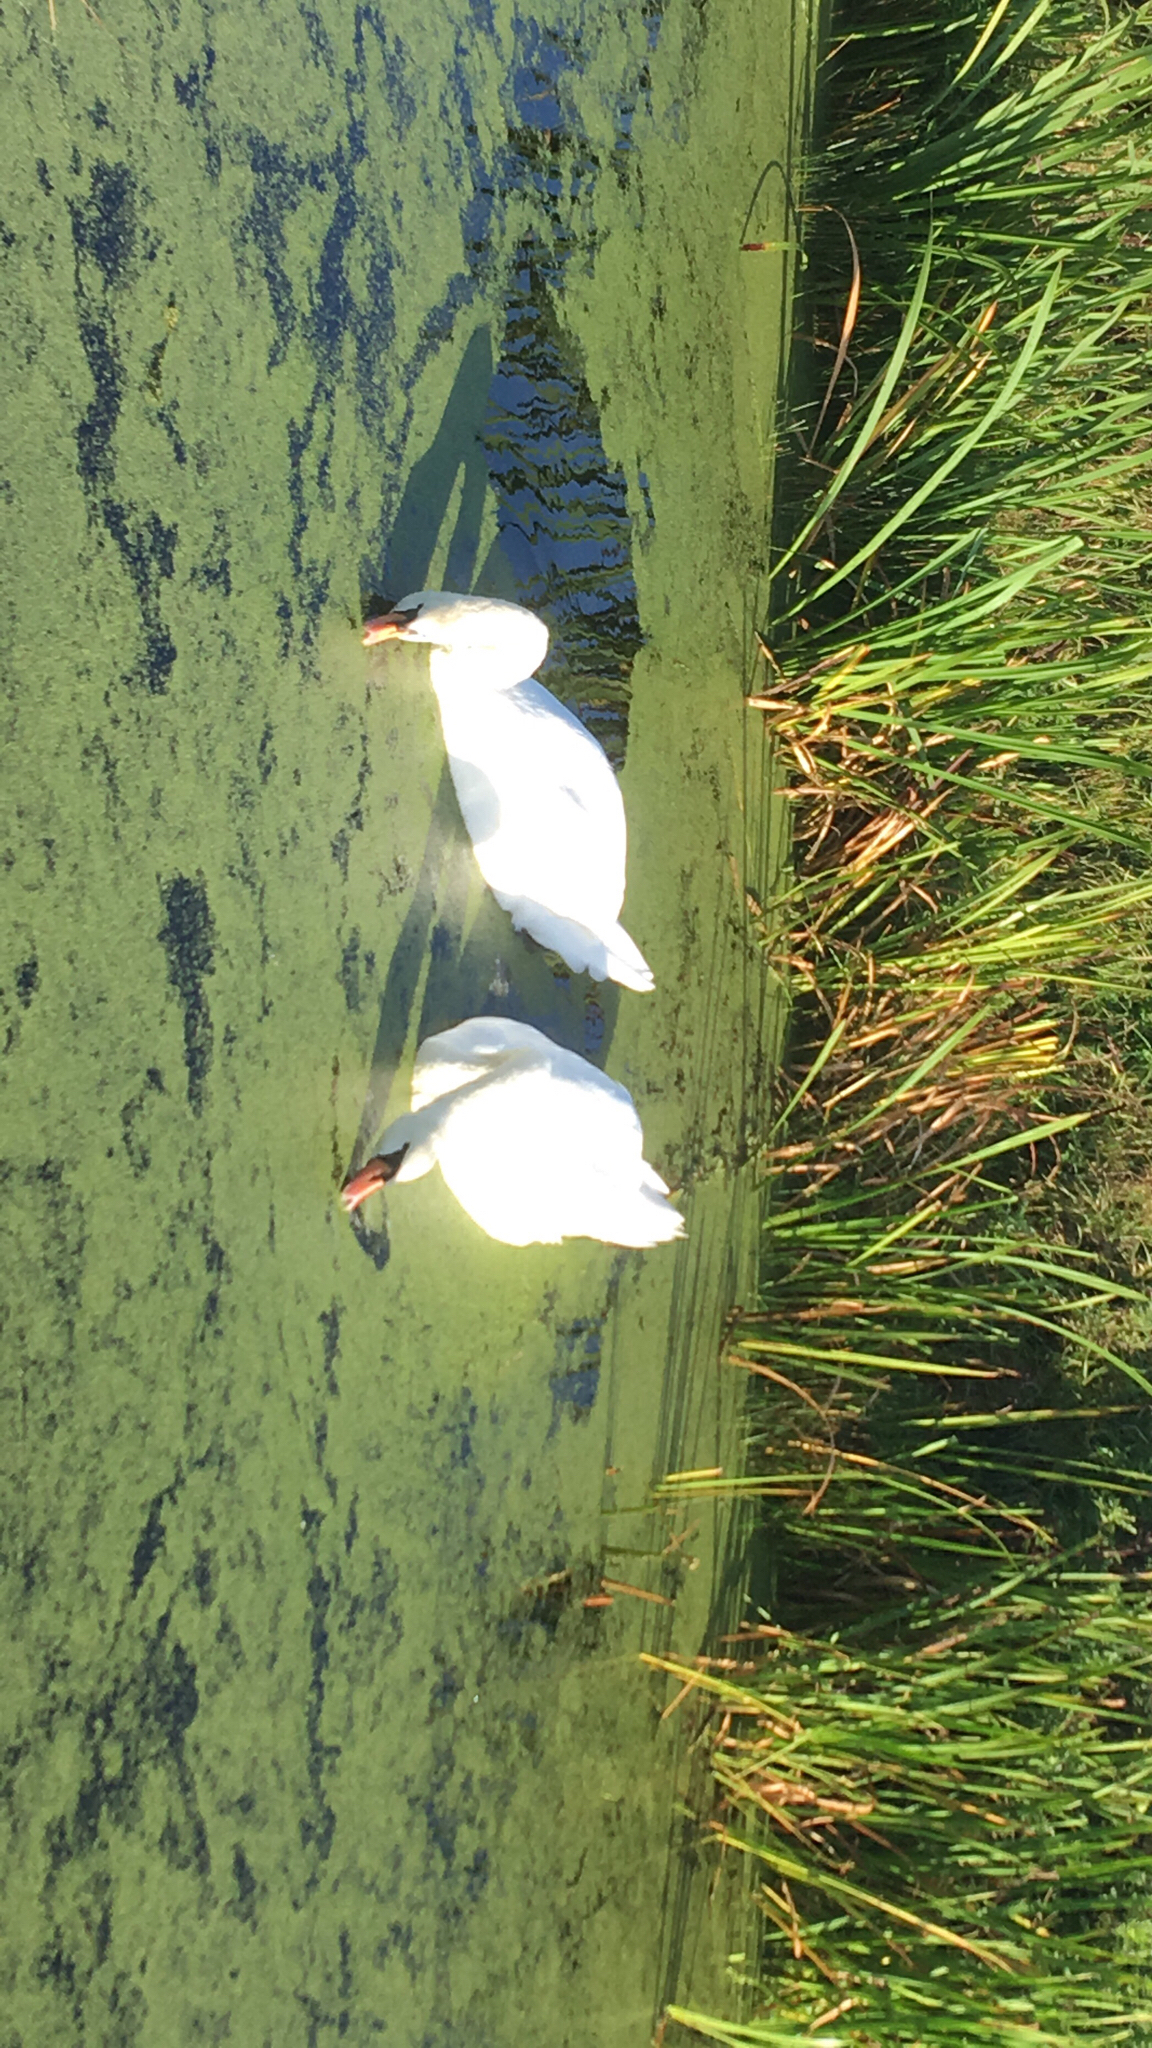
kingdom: Animalia
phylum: Chordata
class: Aves
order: Anseriformes
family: Anatidae
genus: Cygnus
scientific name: Cygnus olor
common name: Mute swan
